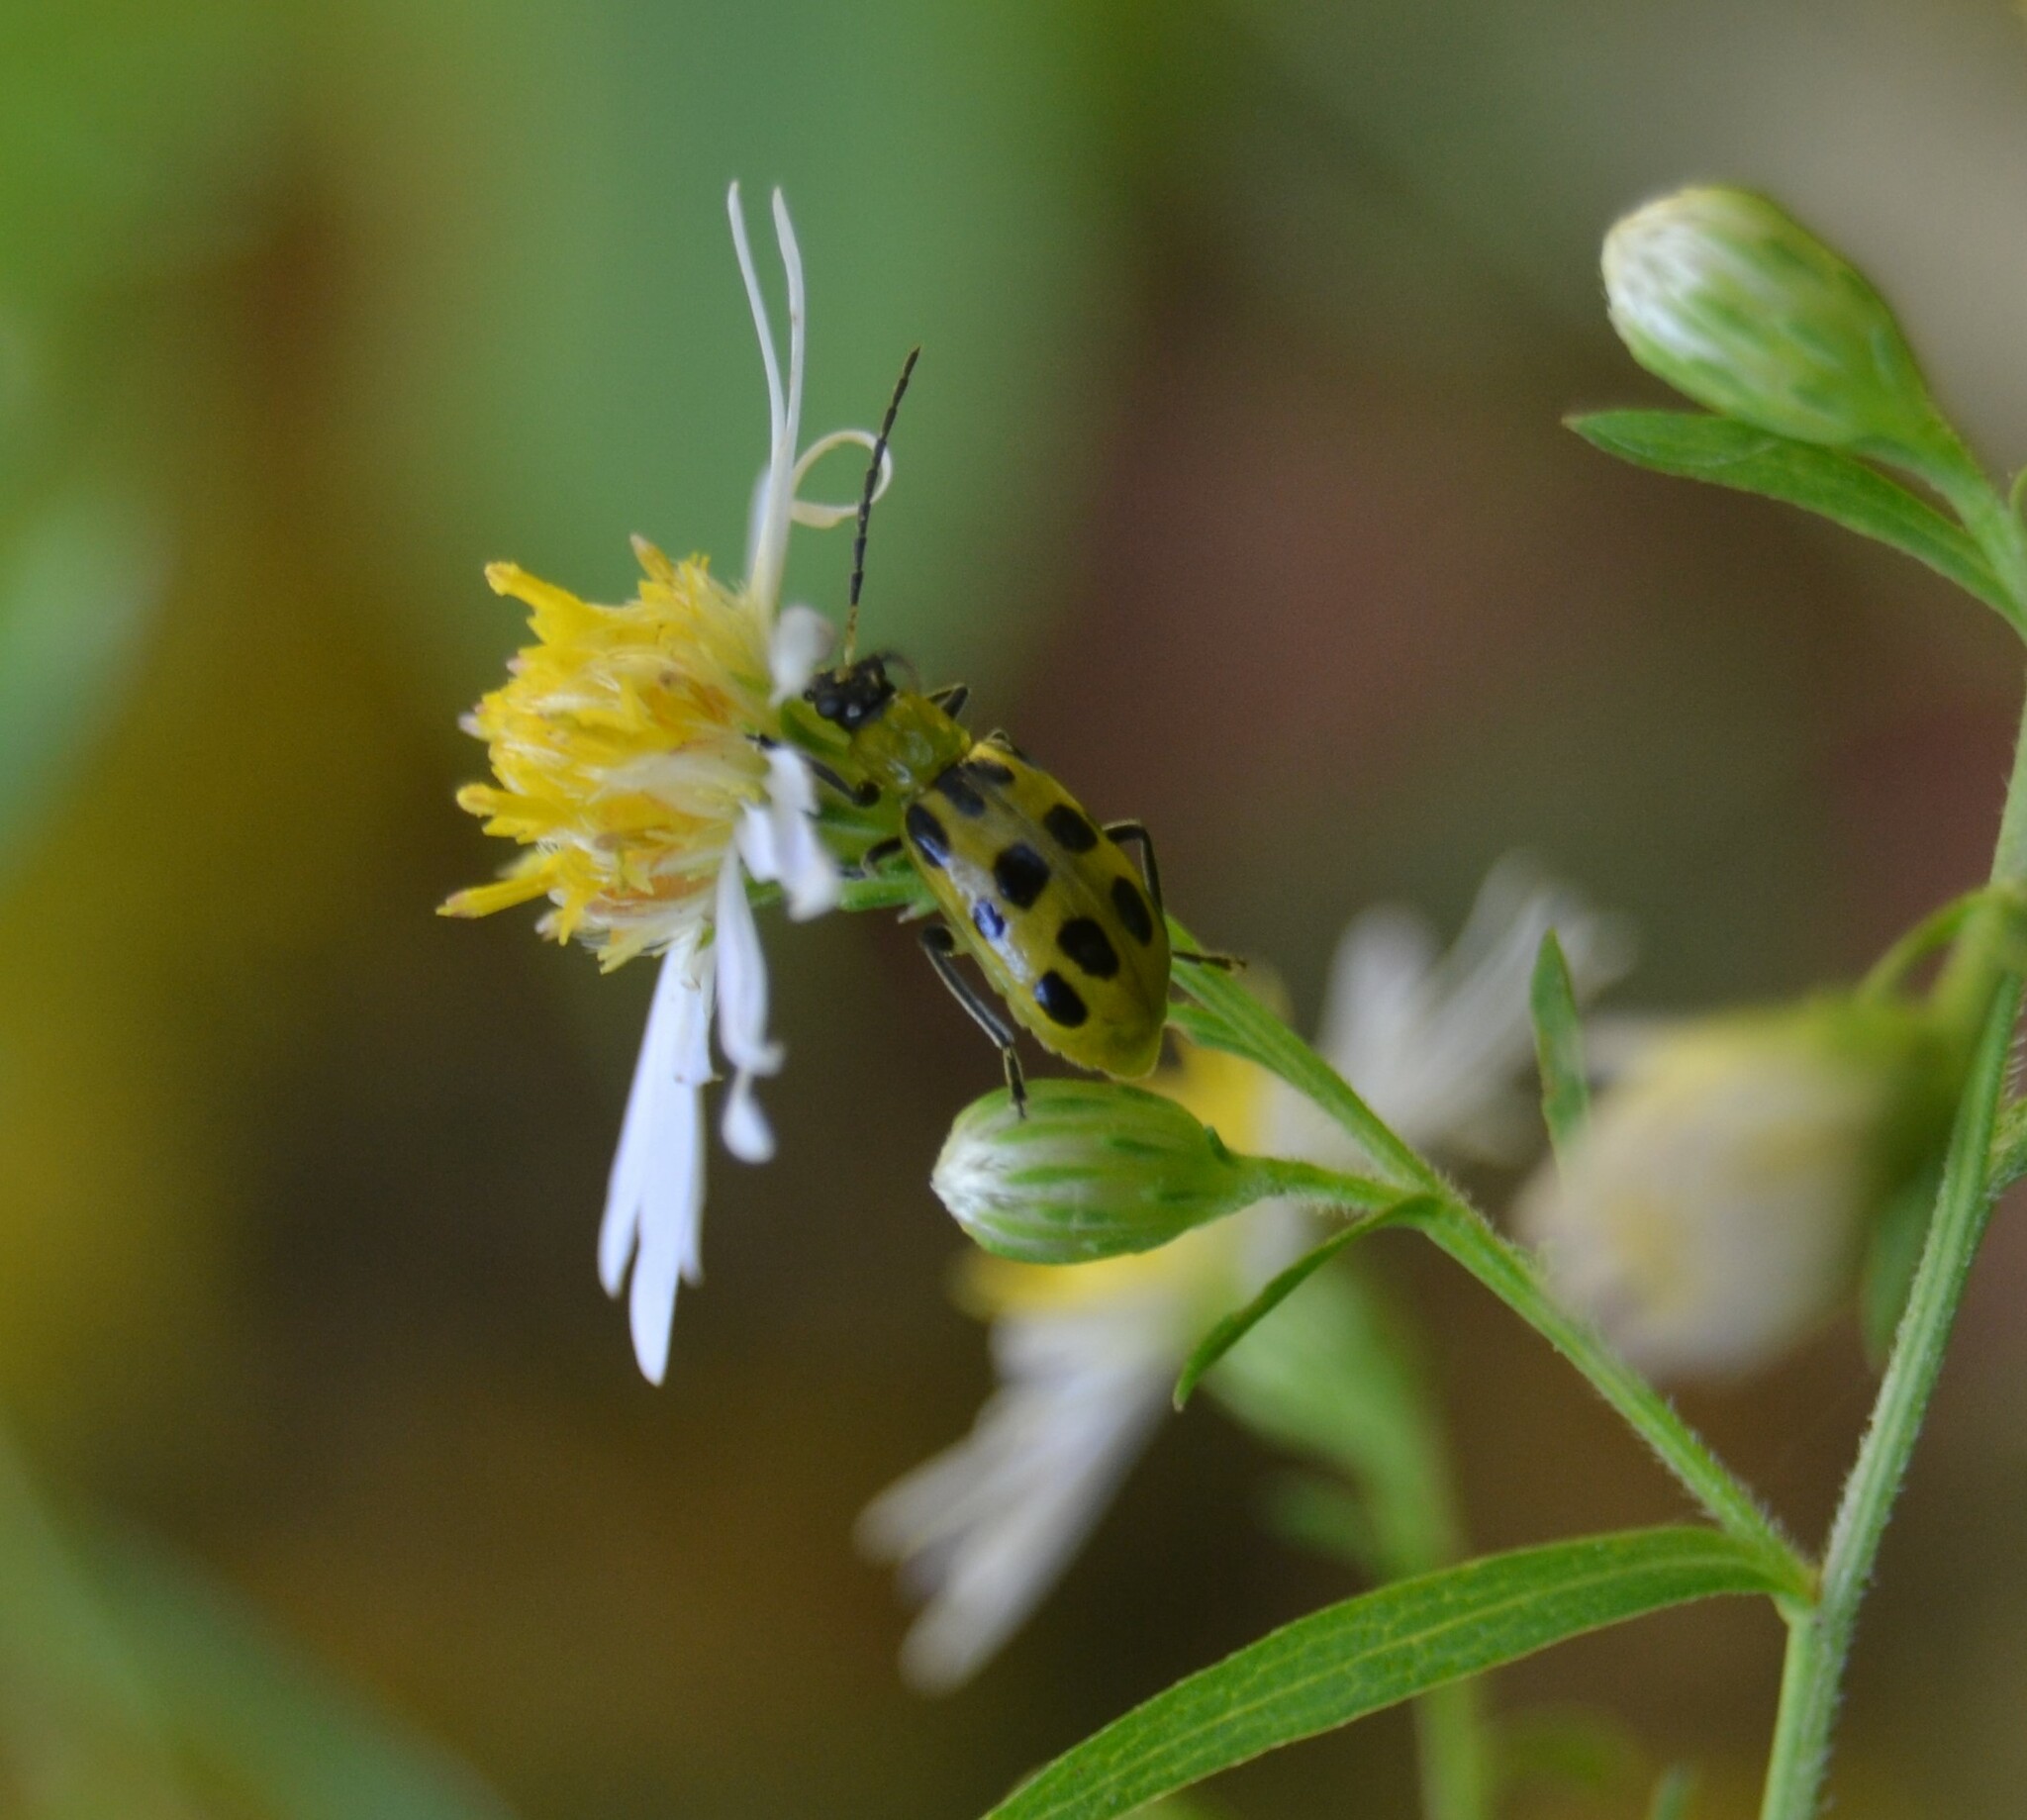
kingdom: Animalia
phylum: Arthropoda
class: Insecta
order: Coleoptera
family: Chrysomelidae
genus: Diabrotica
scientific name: Diabrotica undecimpunctata
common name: Spotted cucumber beetle
